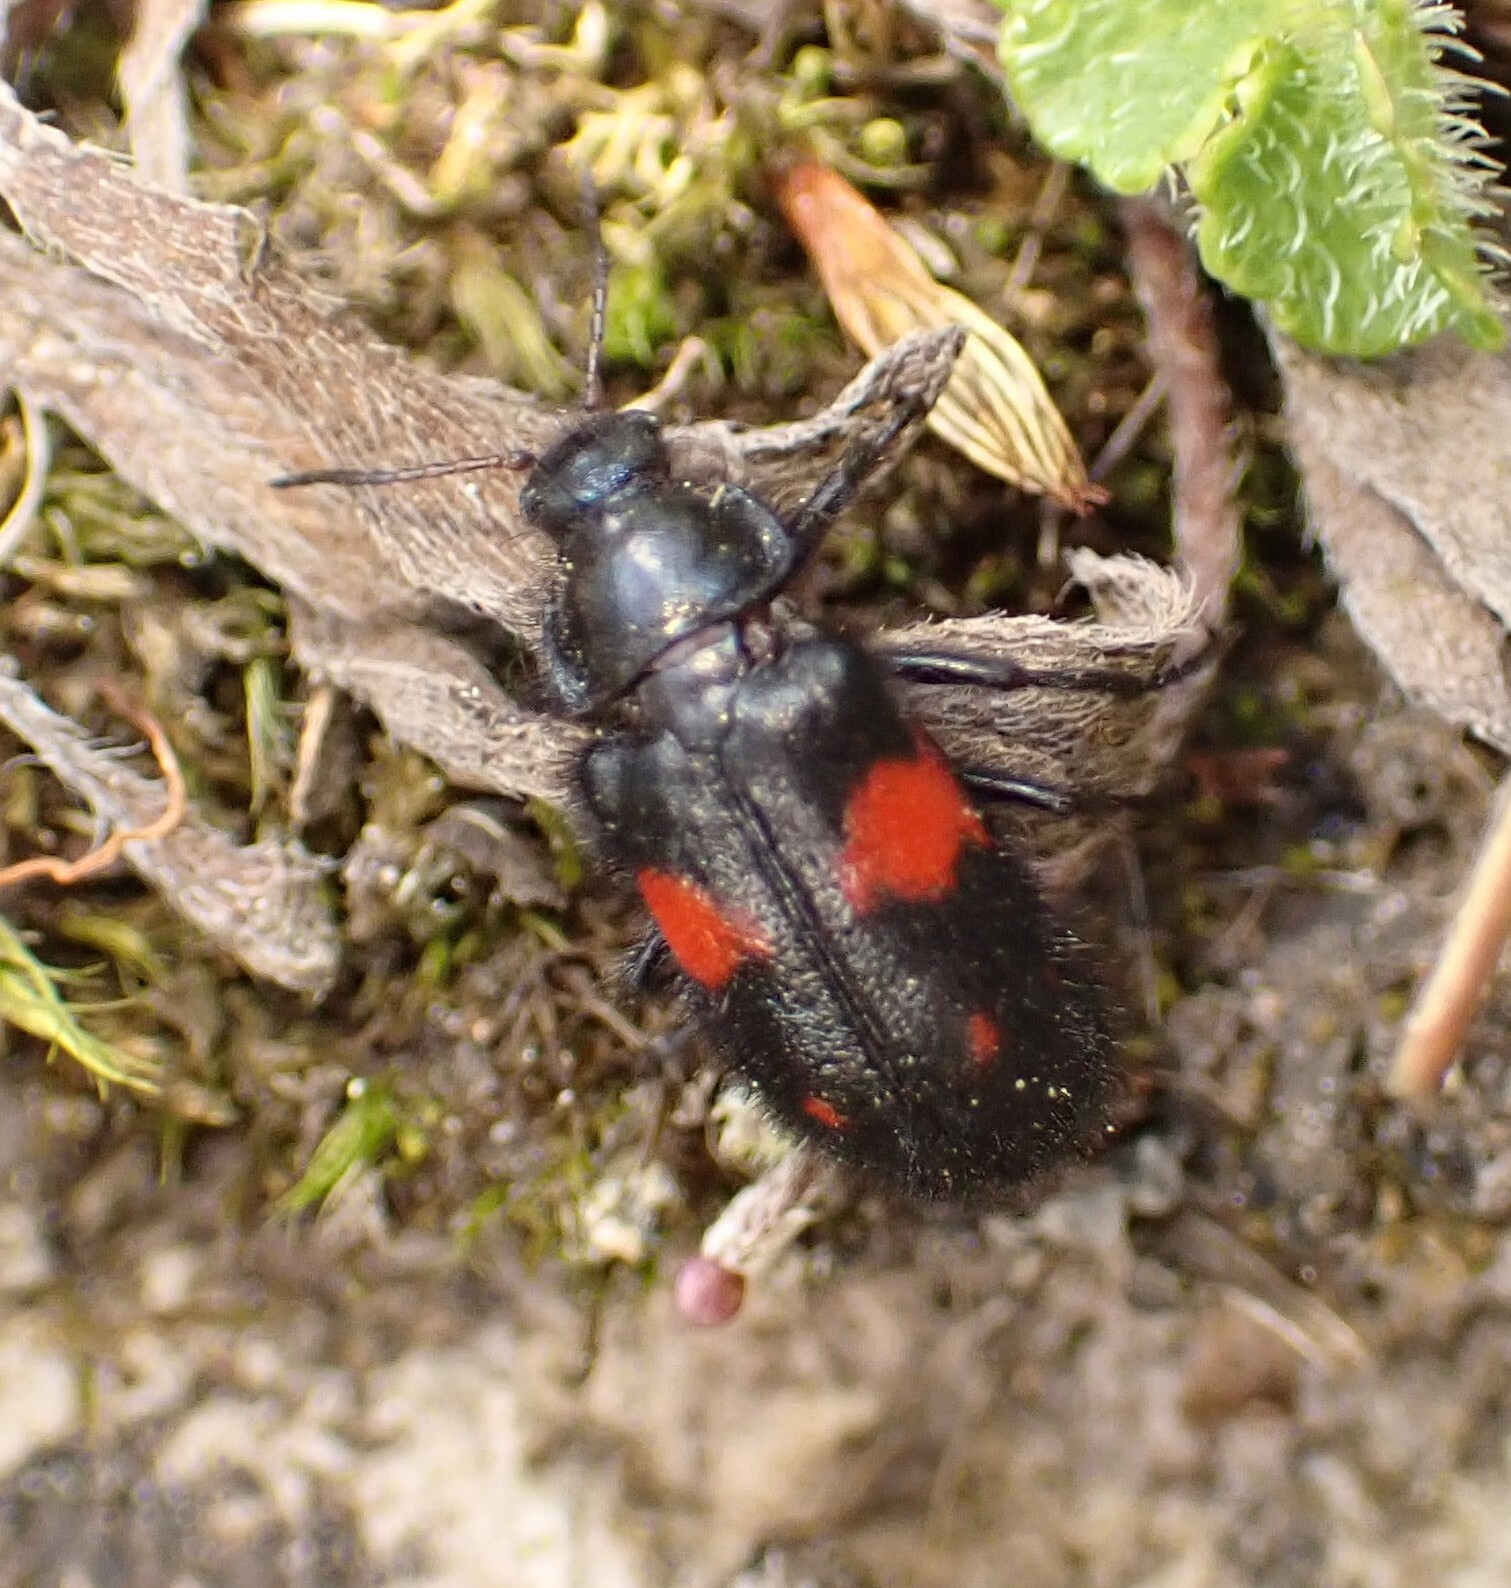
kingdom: Animalia
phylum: Arthropoda
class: Insecta
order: Coleoptera
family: Melyridae
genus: Astylus
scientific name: Astylus
